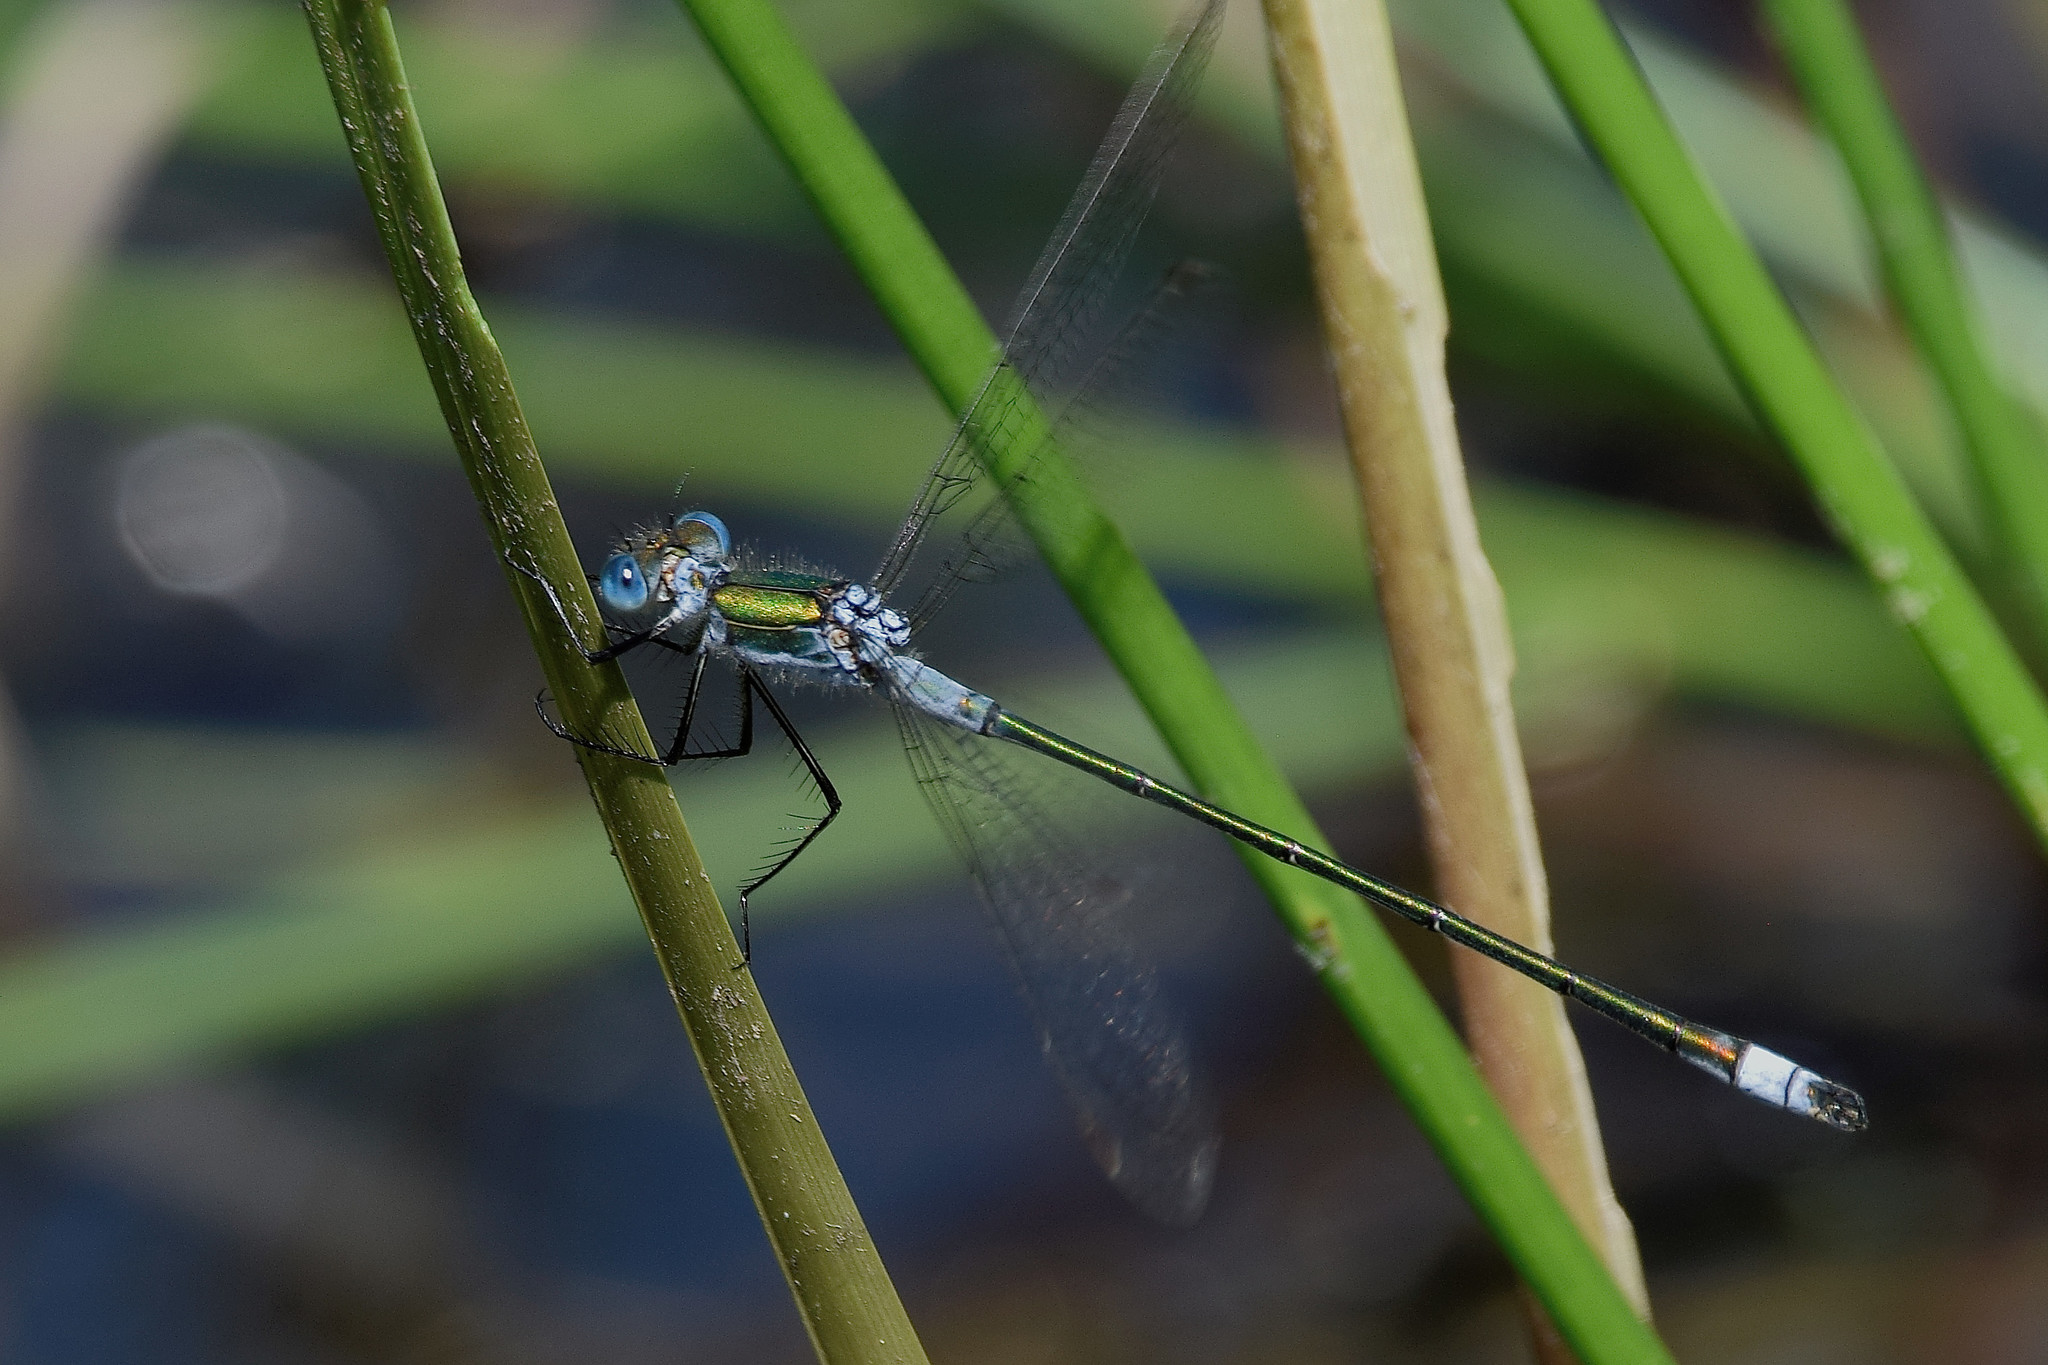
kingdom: Animalia
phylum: Arthropoda
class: Insecta
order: Odonata
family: Lestidae
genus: Lestes
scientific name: Lestes sponsa
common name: Common spreadwing
